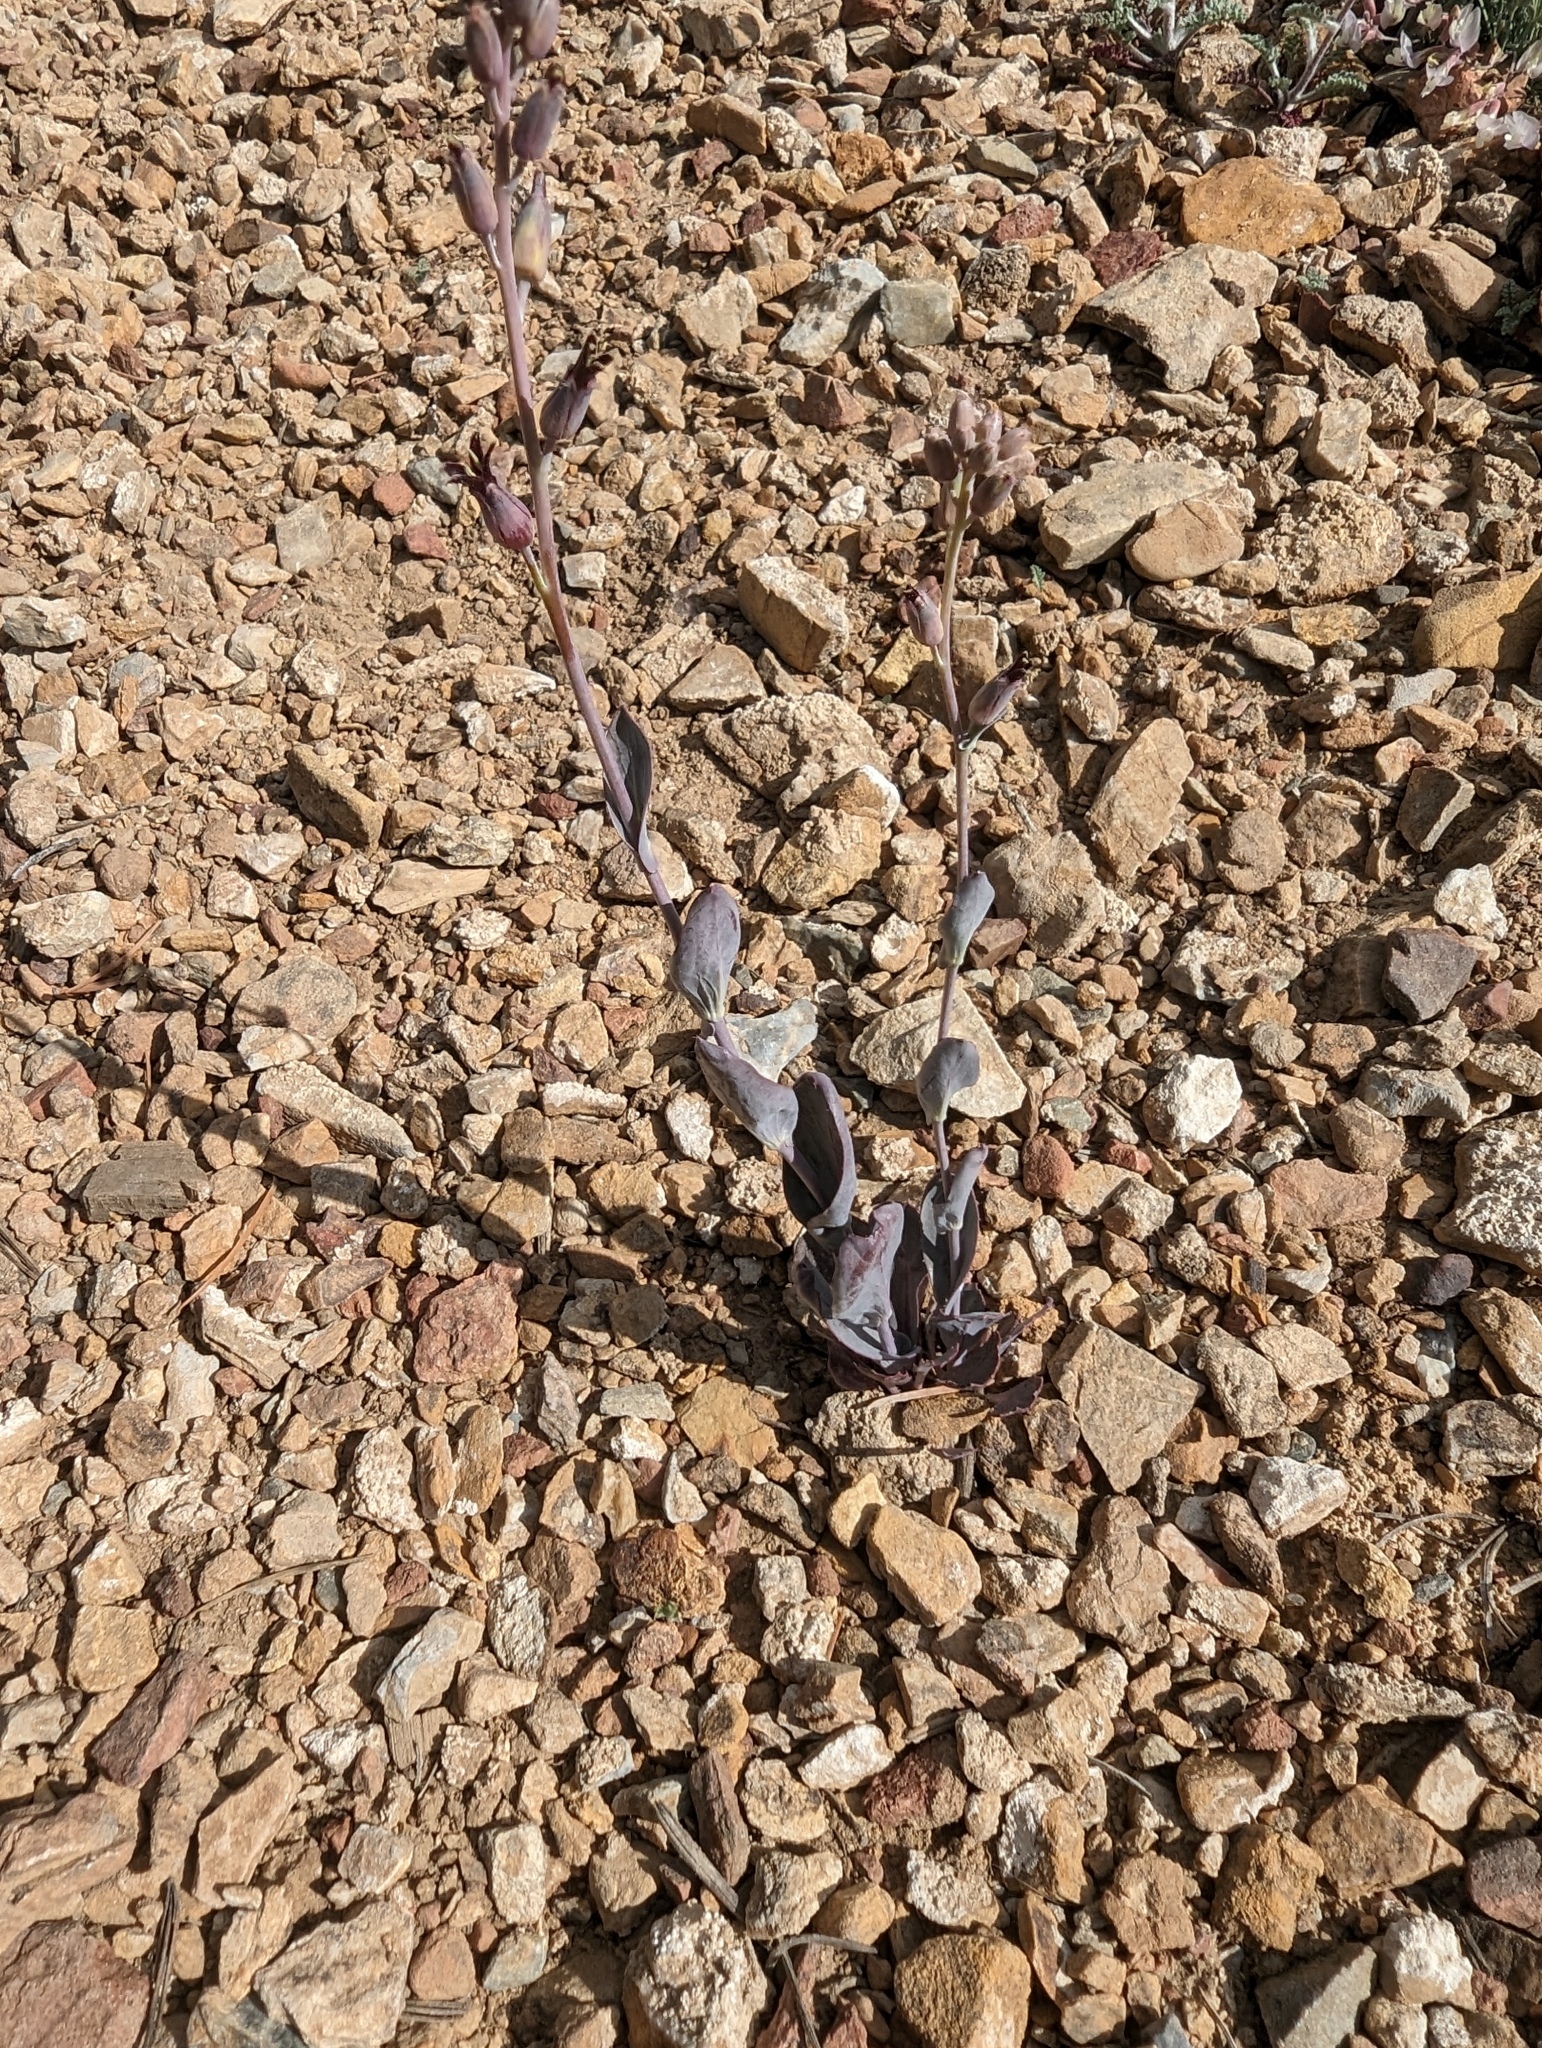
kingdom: Plantae
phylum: Tracheophyta
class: Magnoliopsida
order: Brassicales
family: Brassicaceae
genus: Streptanthus
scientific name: Streptanthus cordatus
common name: Heart-leaf jewel-flower
